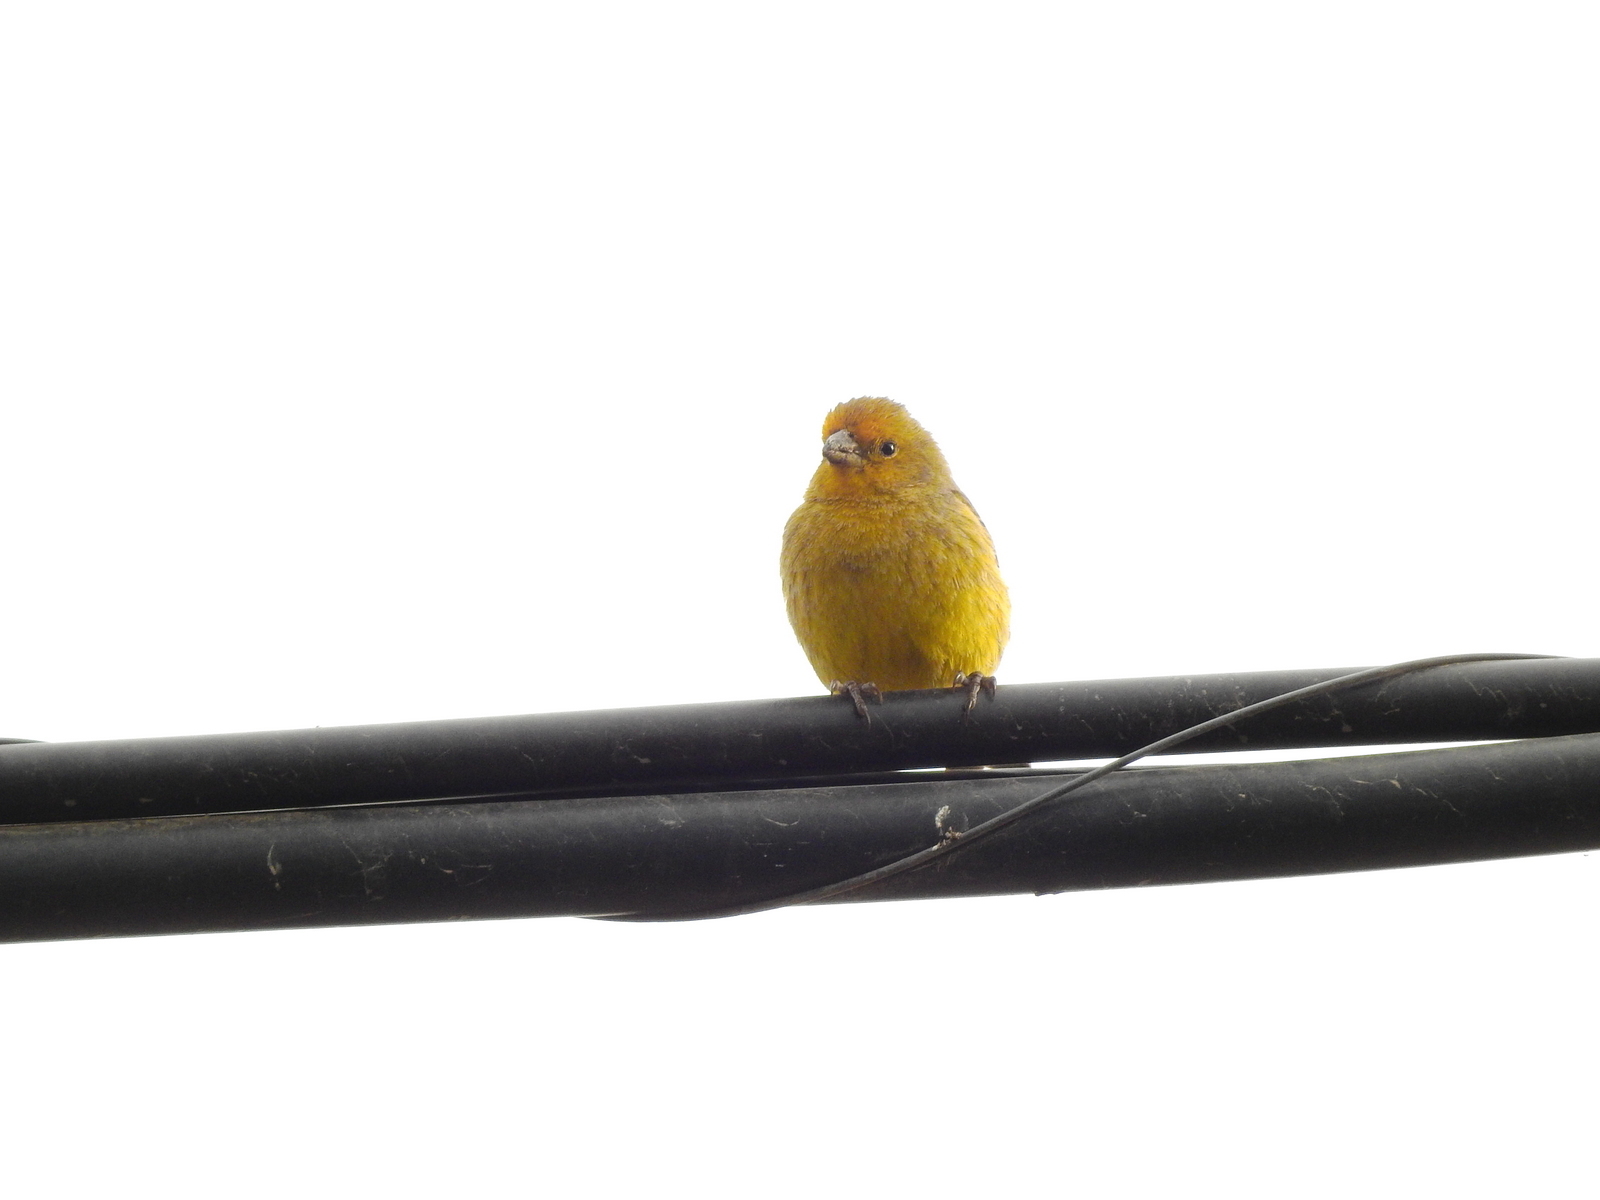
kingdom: Animalia
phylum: Chordata
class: Aves
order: Passeriformes
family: Thraupidae
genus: Sicalis
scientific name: Sicalis flaveola
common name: Saffron finch
